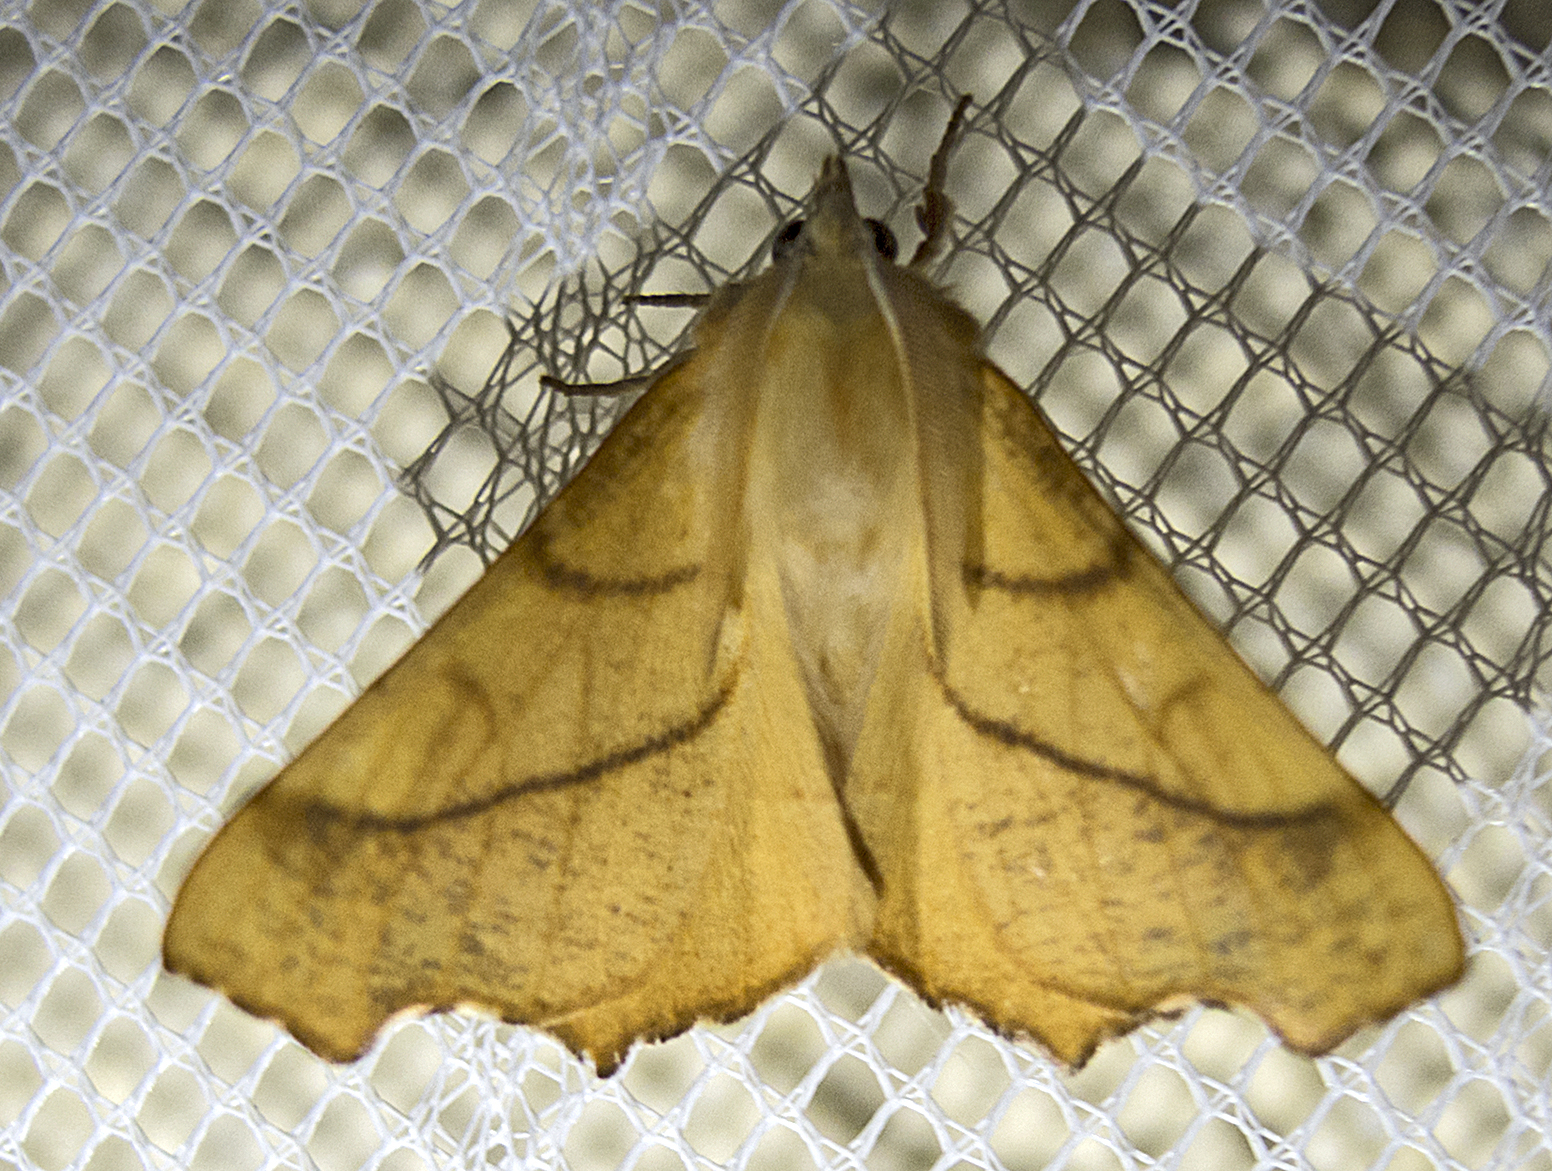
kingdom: Animalia
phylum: Arthropoda
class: Insecta
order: Lepidoptera
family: Geometridae
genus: Ennomos
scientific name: Ennomos fuscantaria
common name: Dusky thorn
